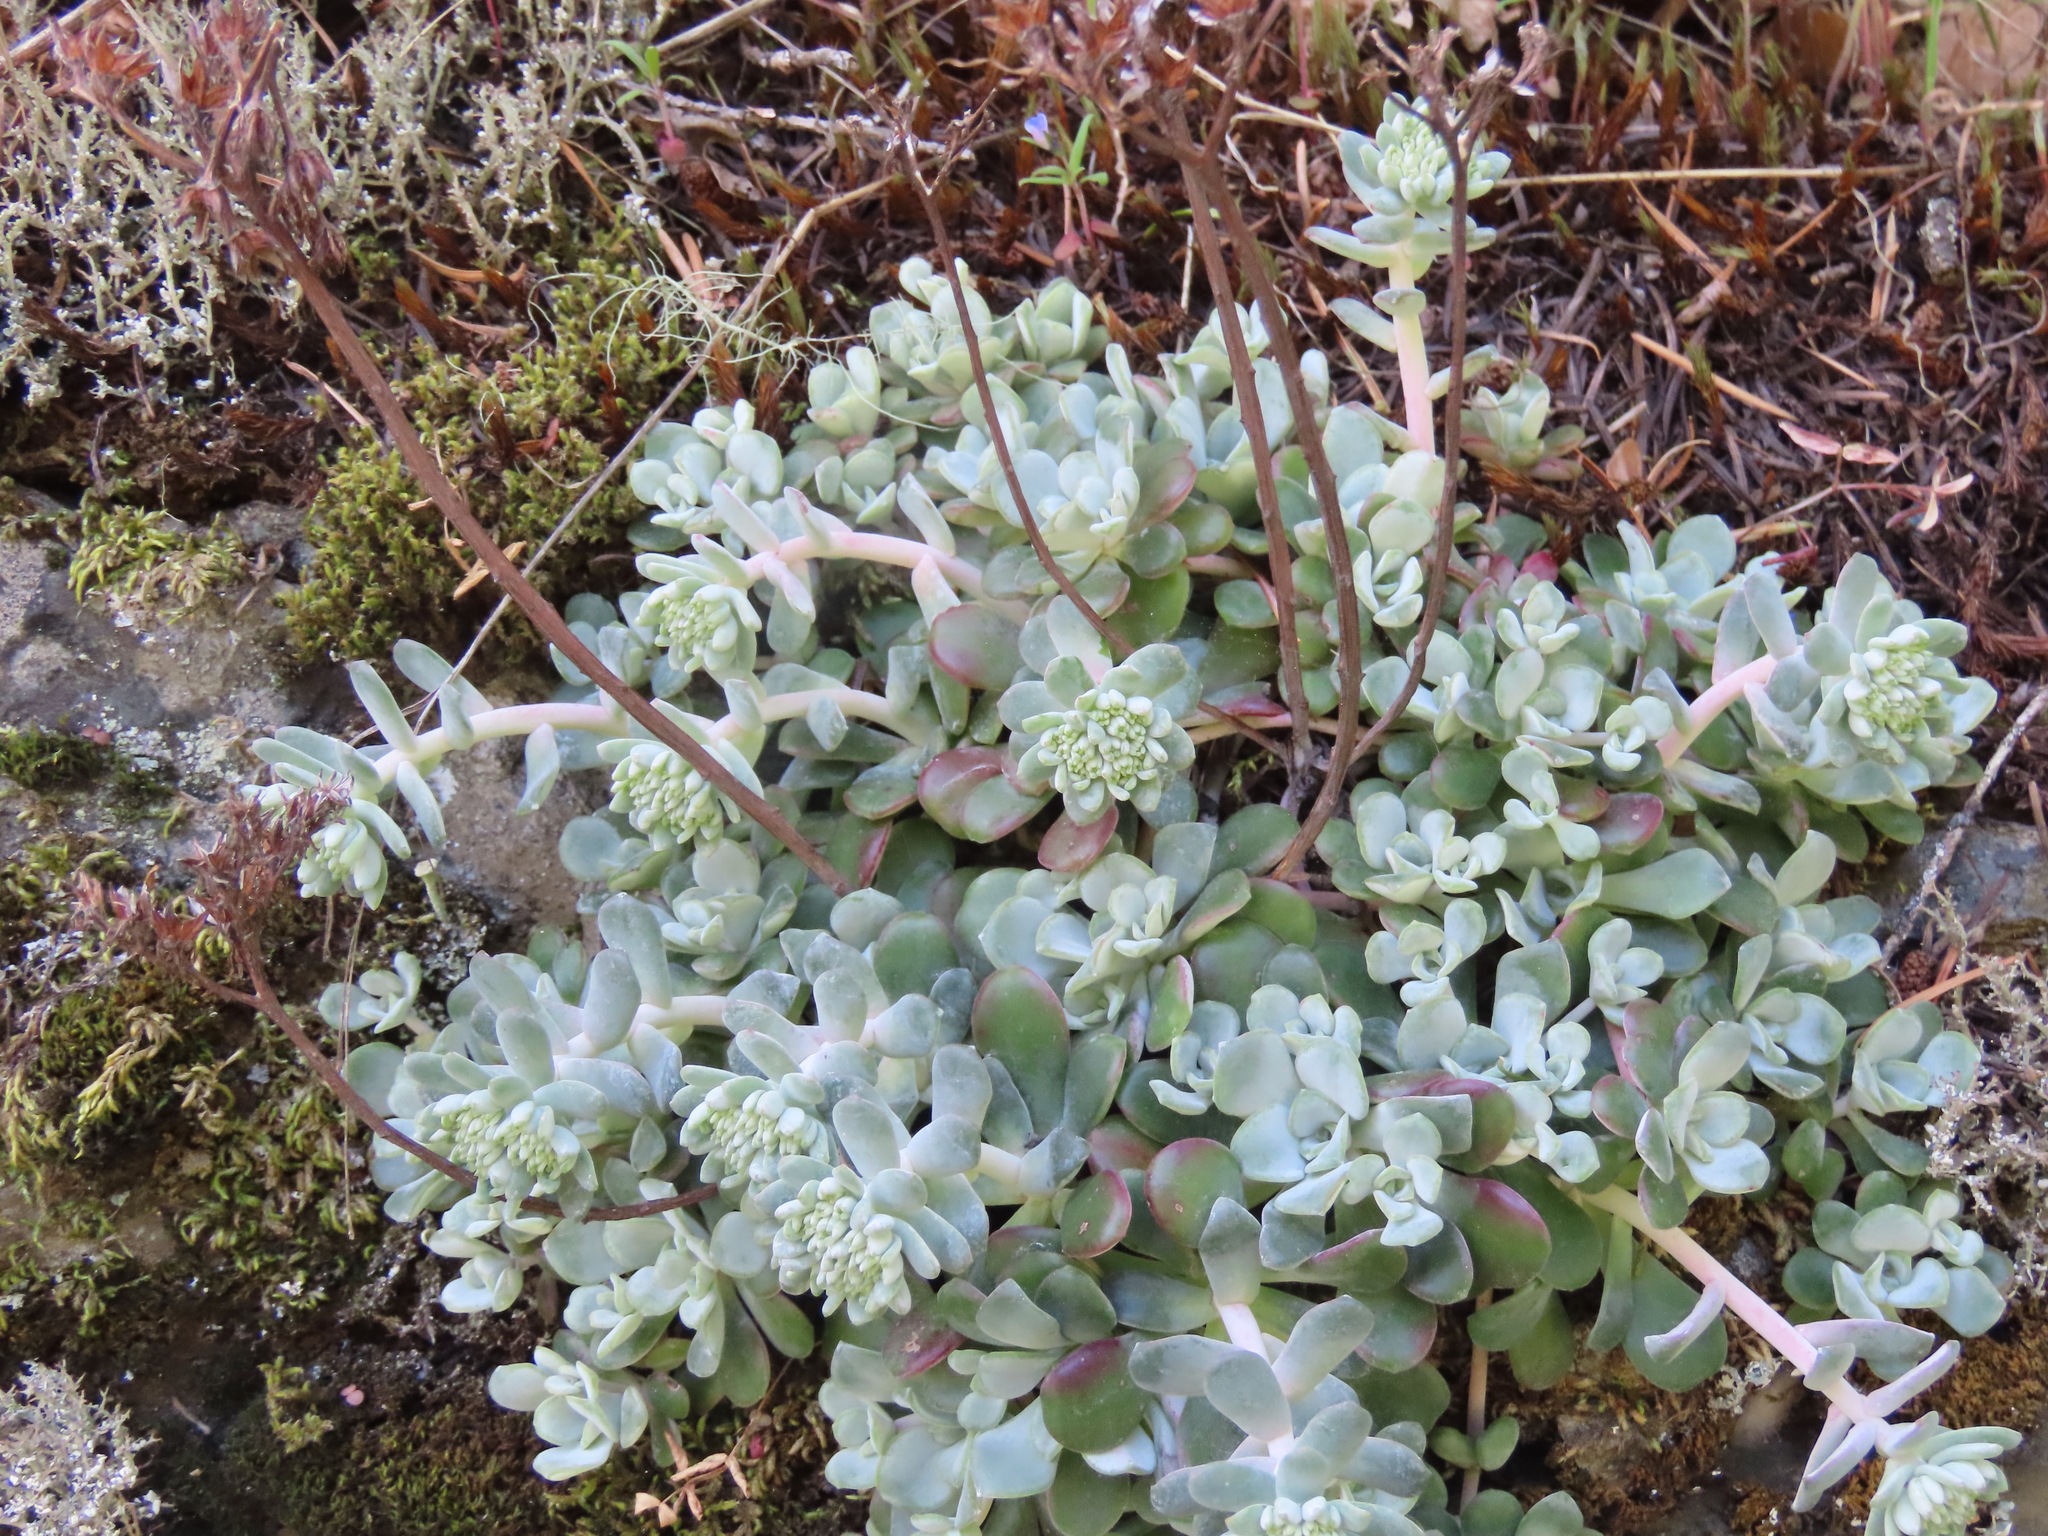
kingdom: Plantae
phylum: Tracheophyta
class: Magnoliopsida
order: Saxifragales
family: Crassulaceae
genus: Sedum
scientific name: Sedum spathulifolium
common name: Colorado stonecrop
